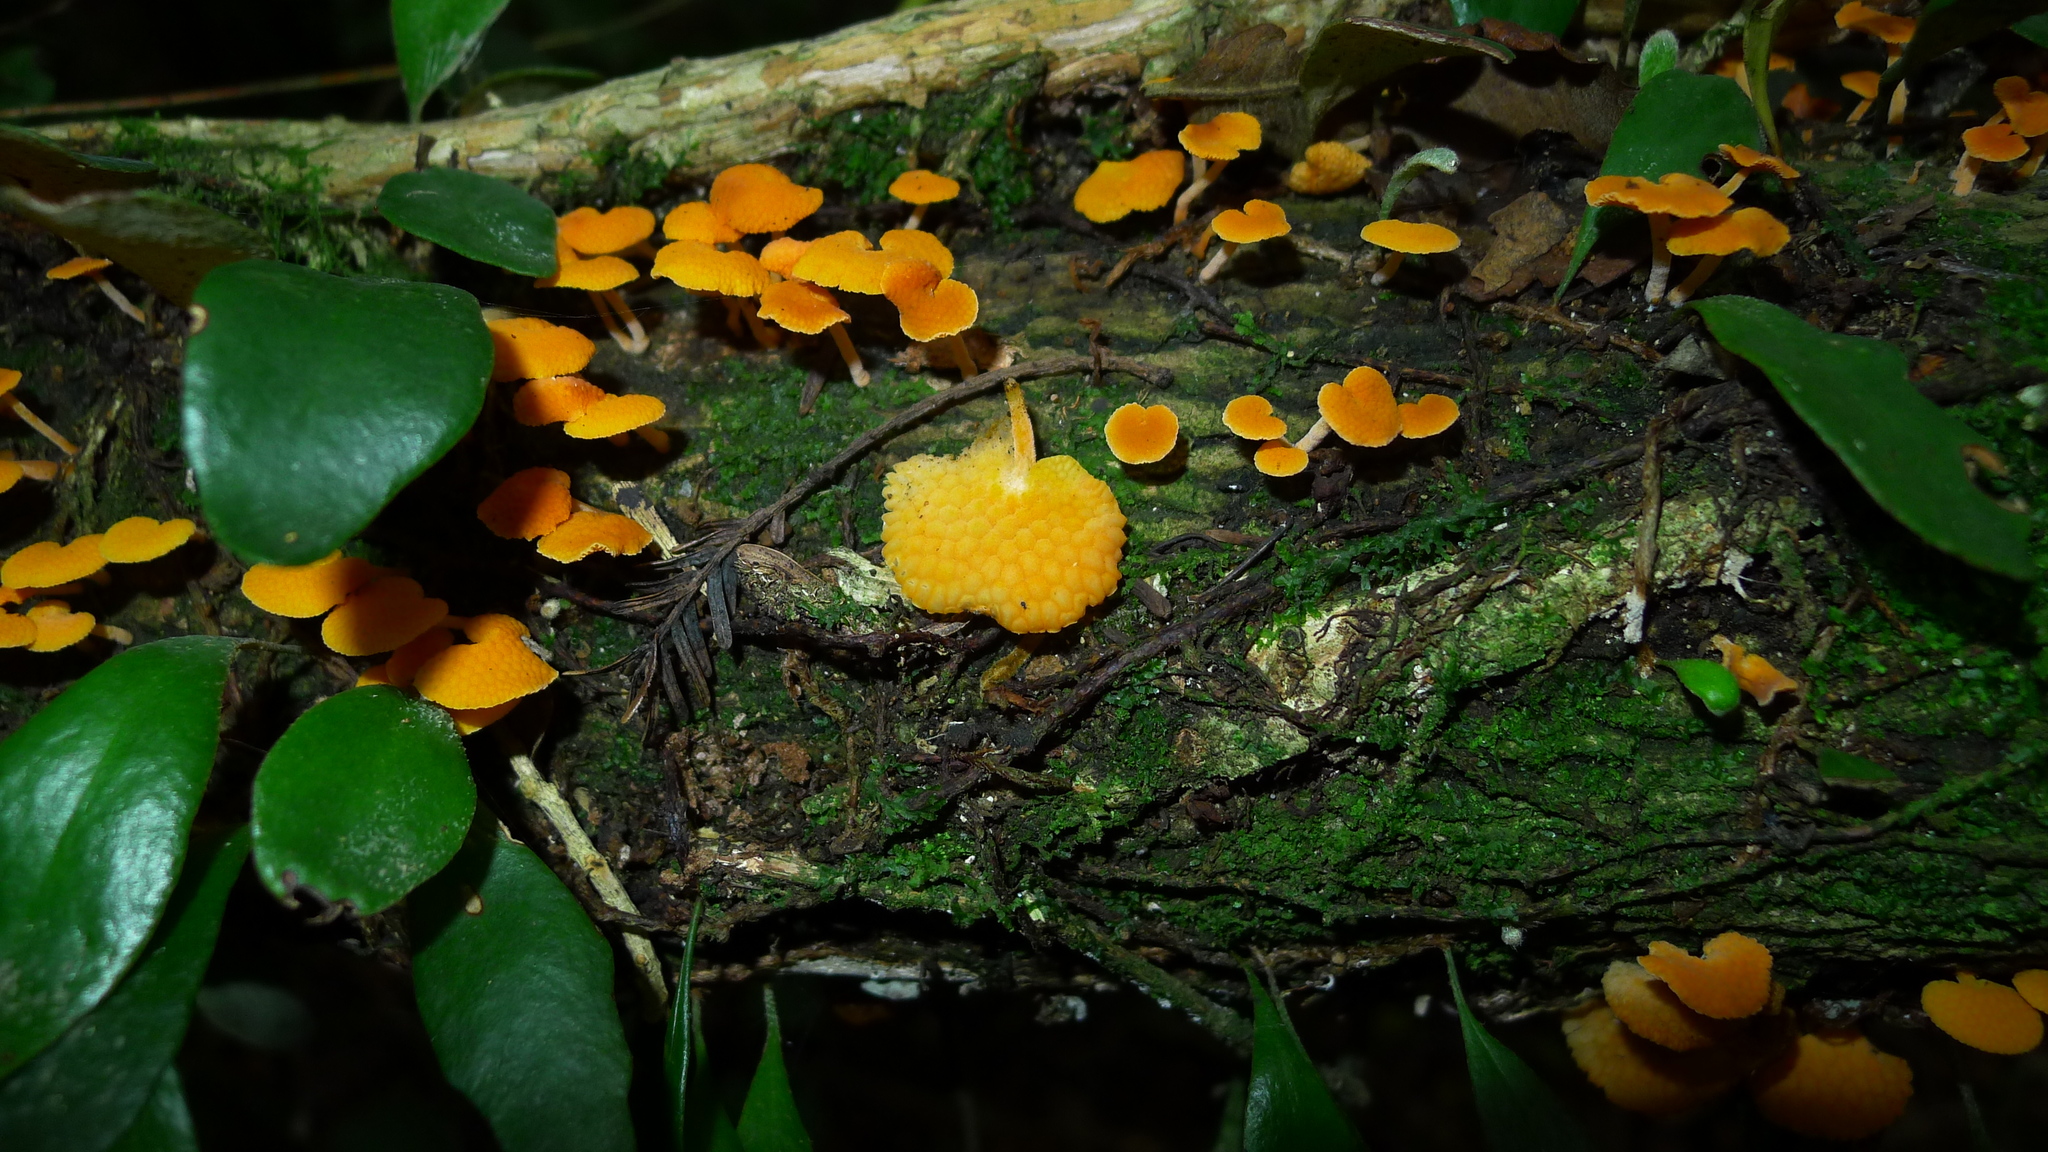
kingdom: Fungi
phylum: Basidiomycota
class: Agaricomycetes
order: Agaricales
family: Mycenaceae
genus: Favolaschia
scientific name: Favolaschia claudopus
